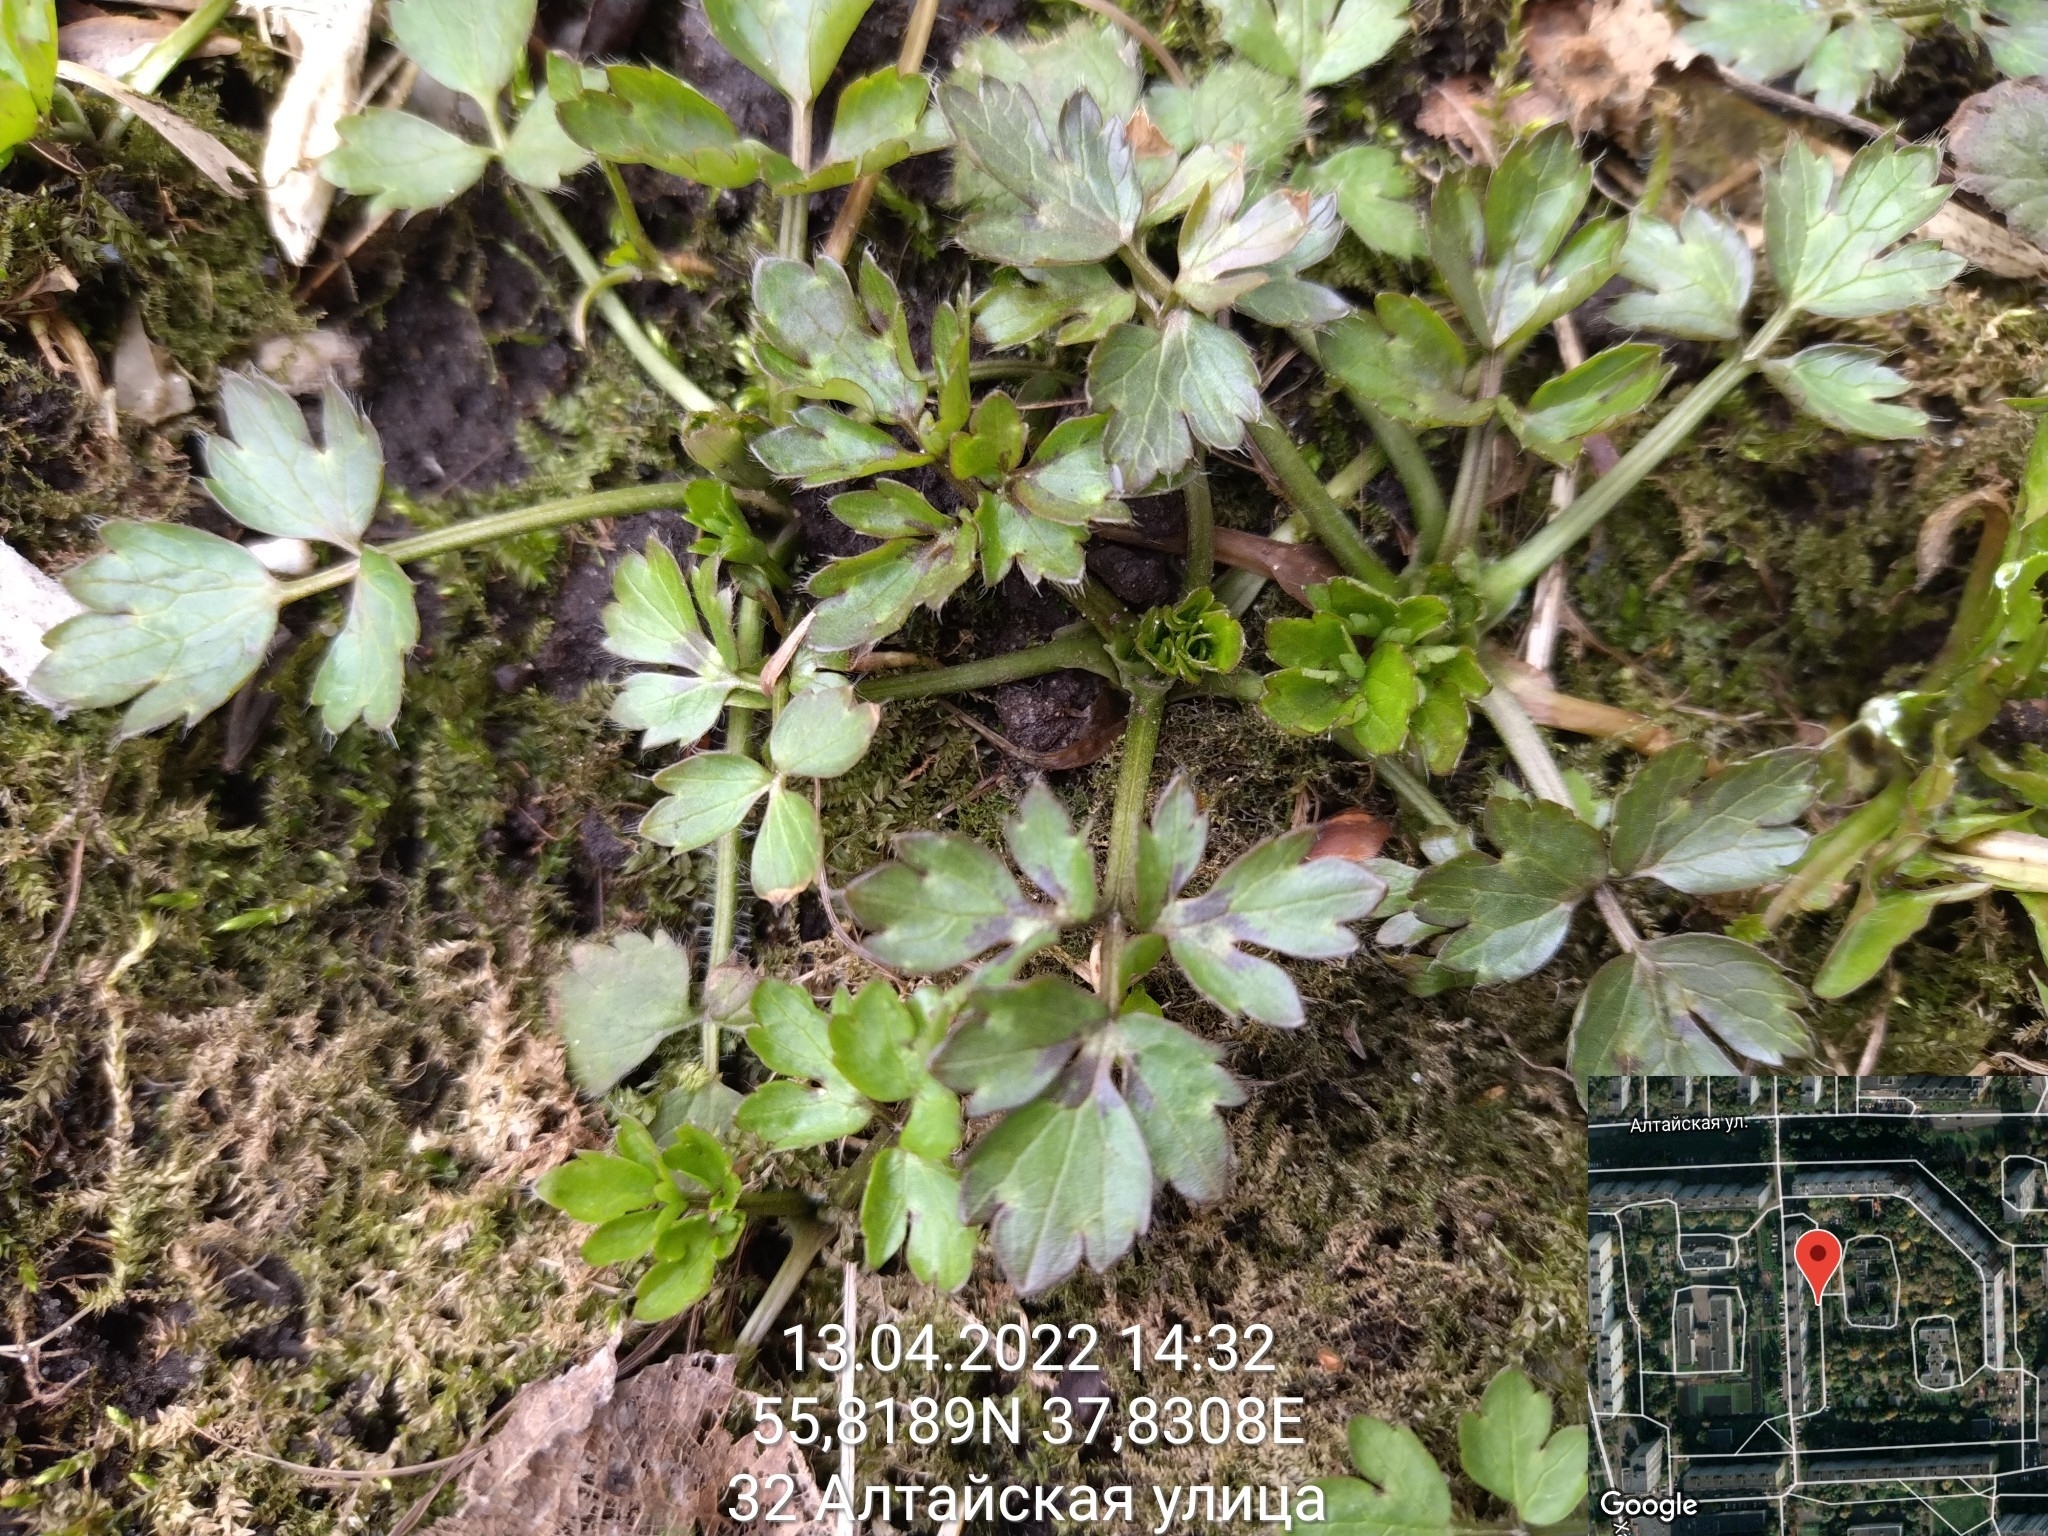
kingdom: Plantae
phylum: Tracheophyta
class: Magnoliopsida
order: Ranunculales
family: Ranunculaceae
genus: Ranunculus
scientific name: Ranunculus repens
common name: Creeping buttercup
